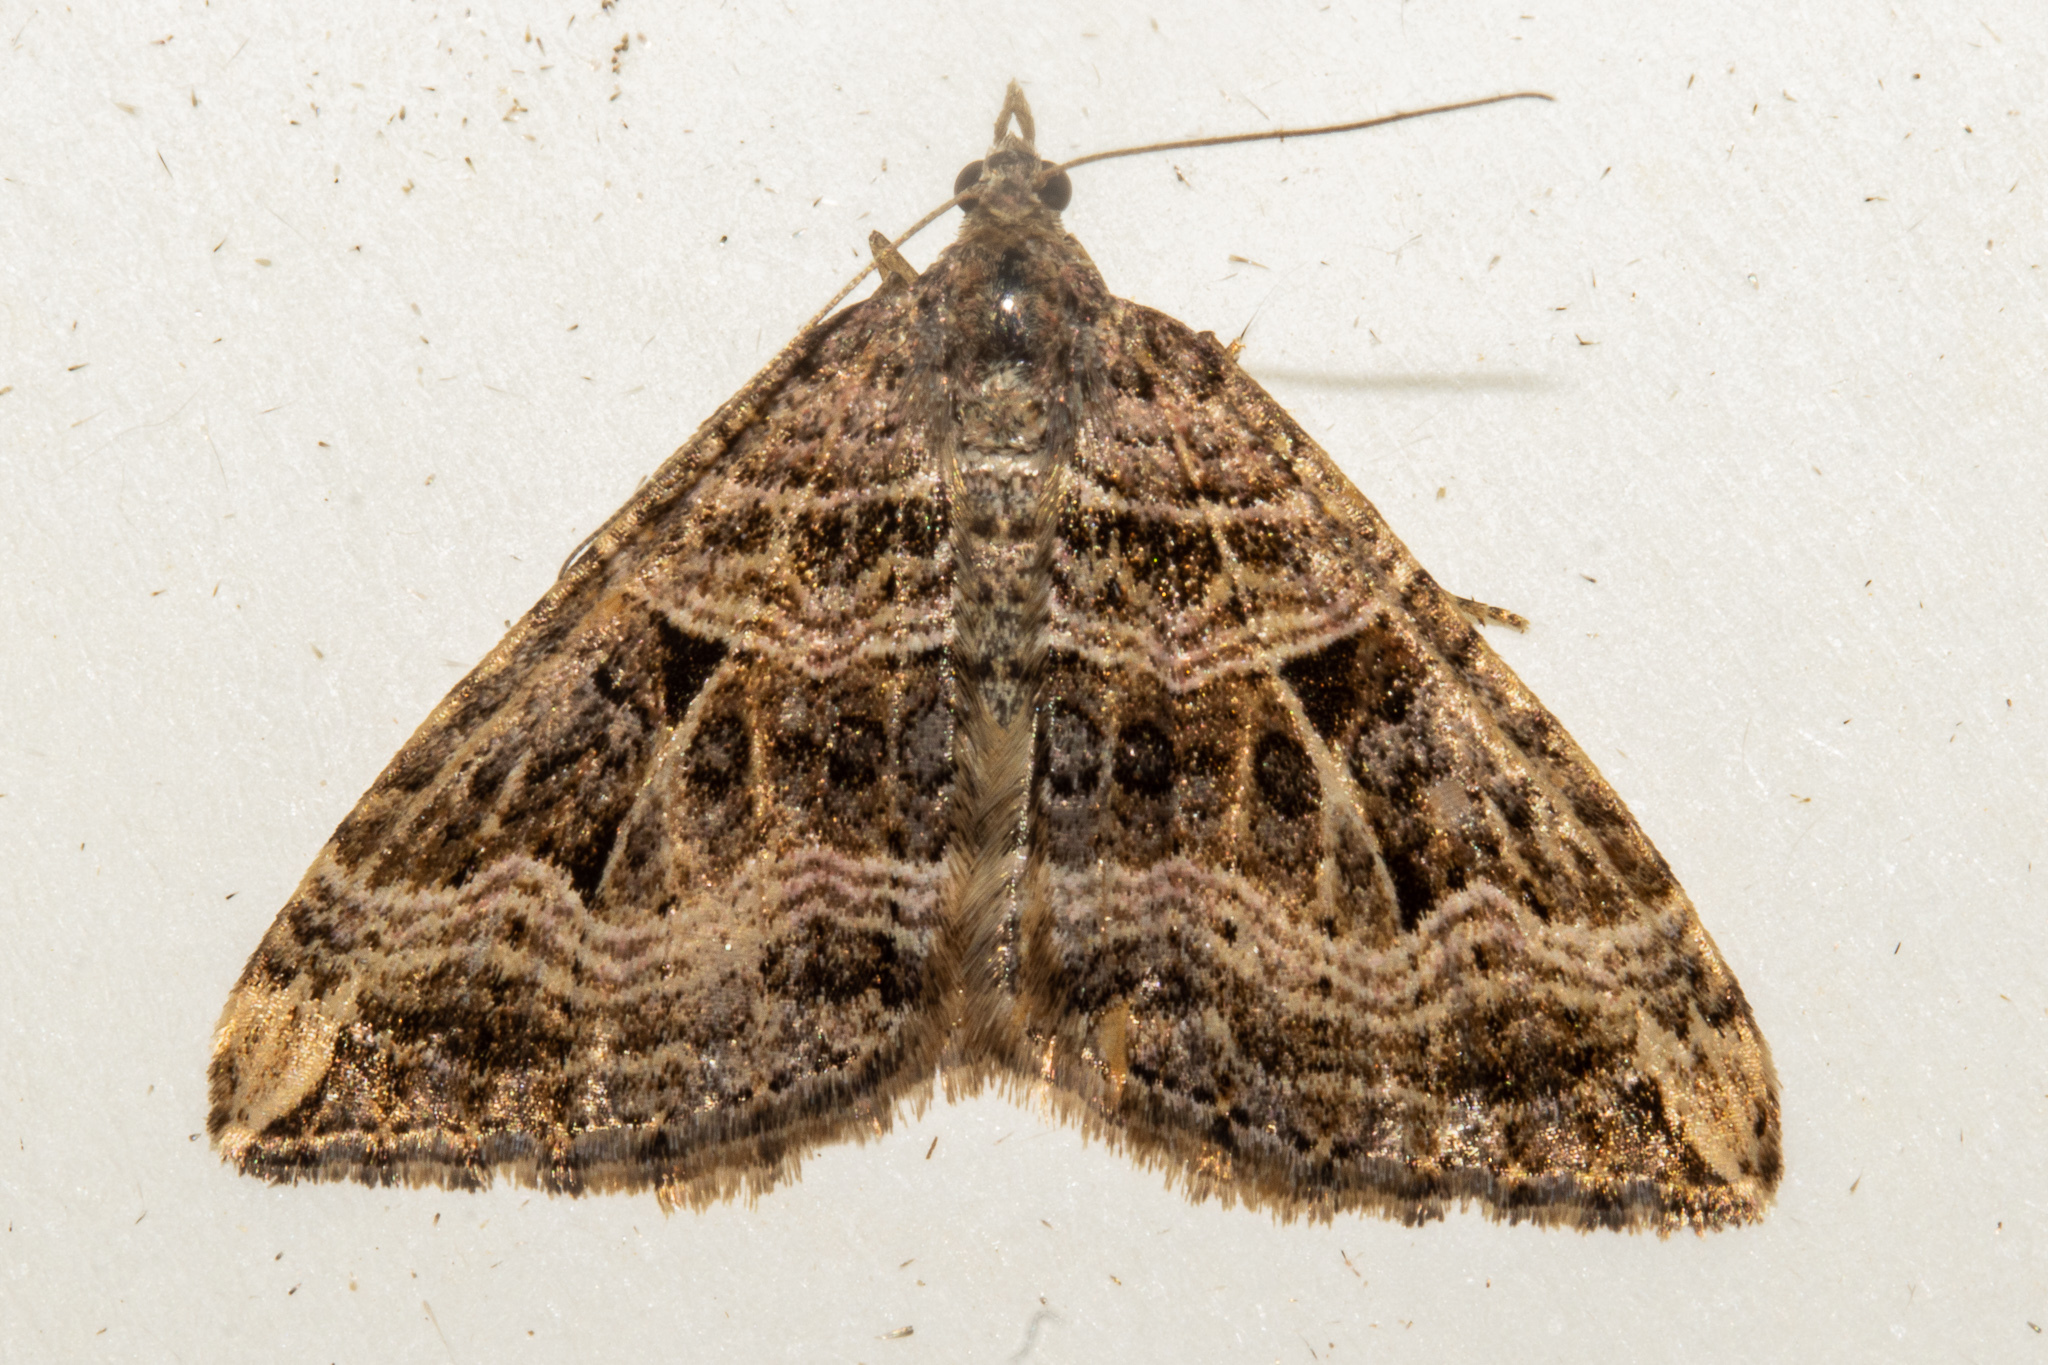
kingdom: Animalia
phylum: Arthropoda
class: Insecta
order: Lepidoptera
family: Geometridae
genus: Xanthorhoe
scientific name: Xanthorhoe semifissata
